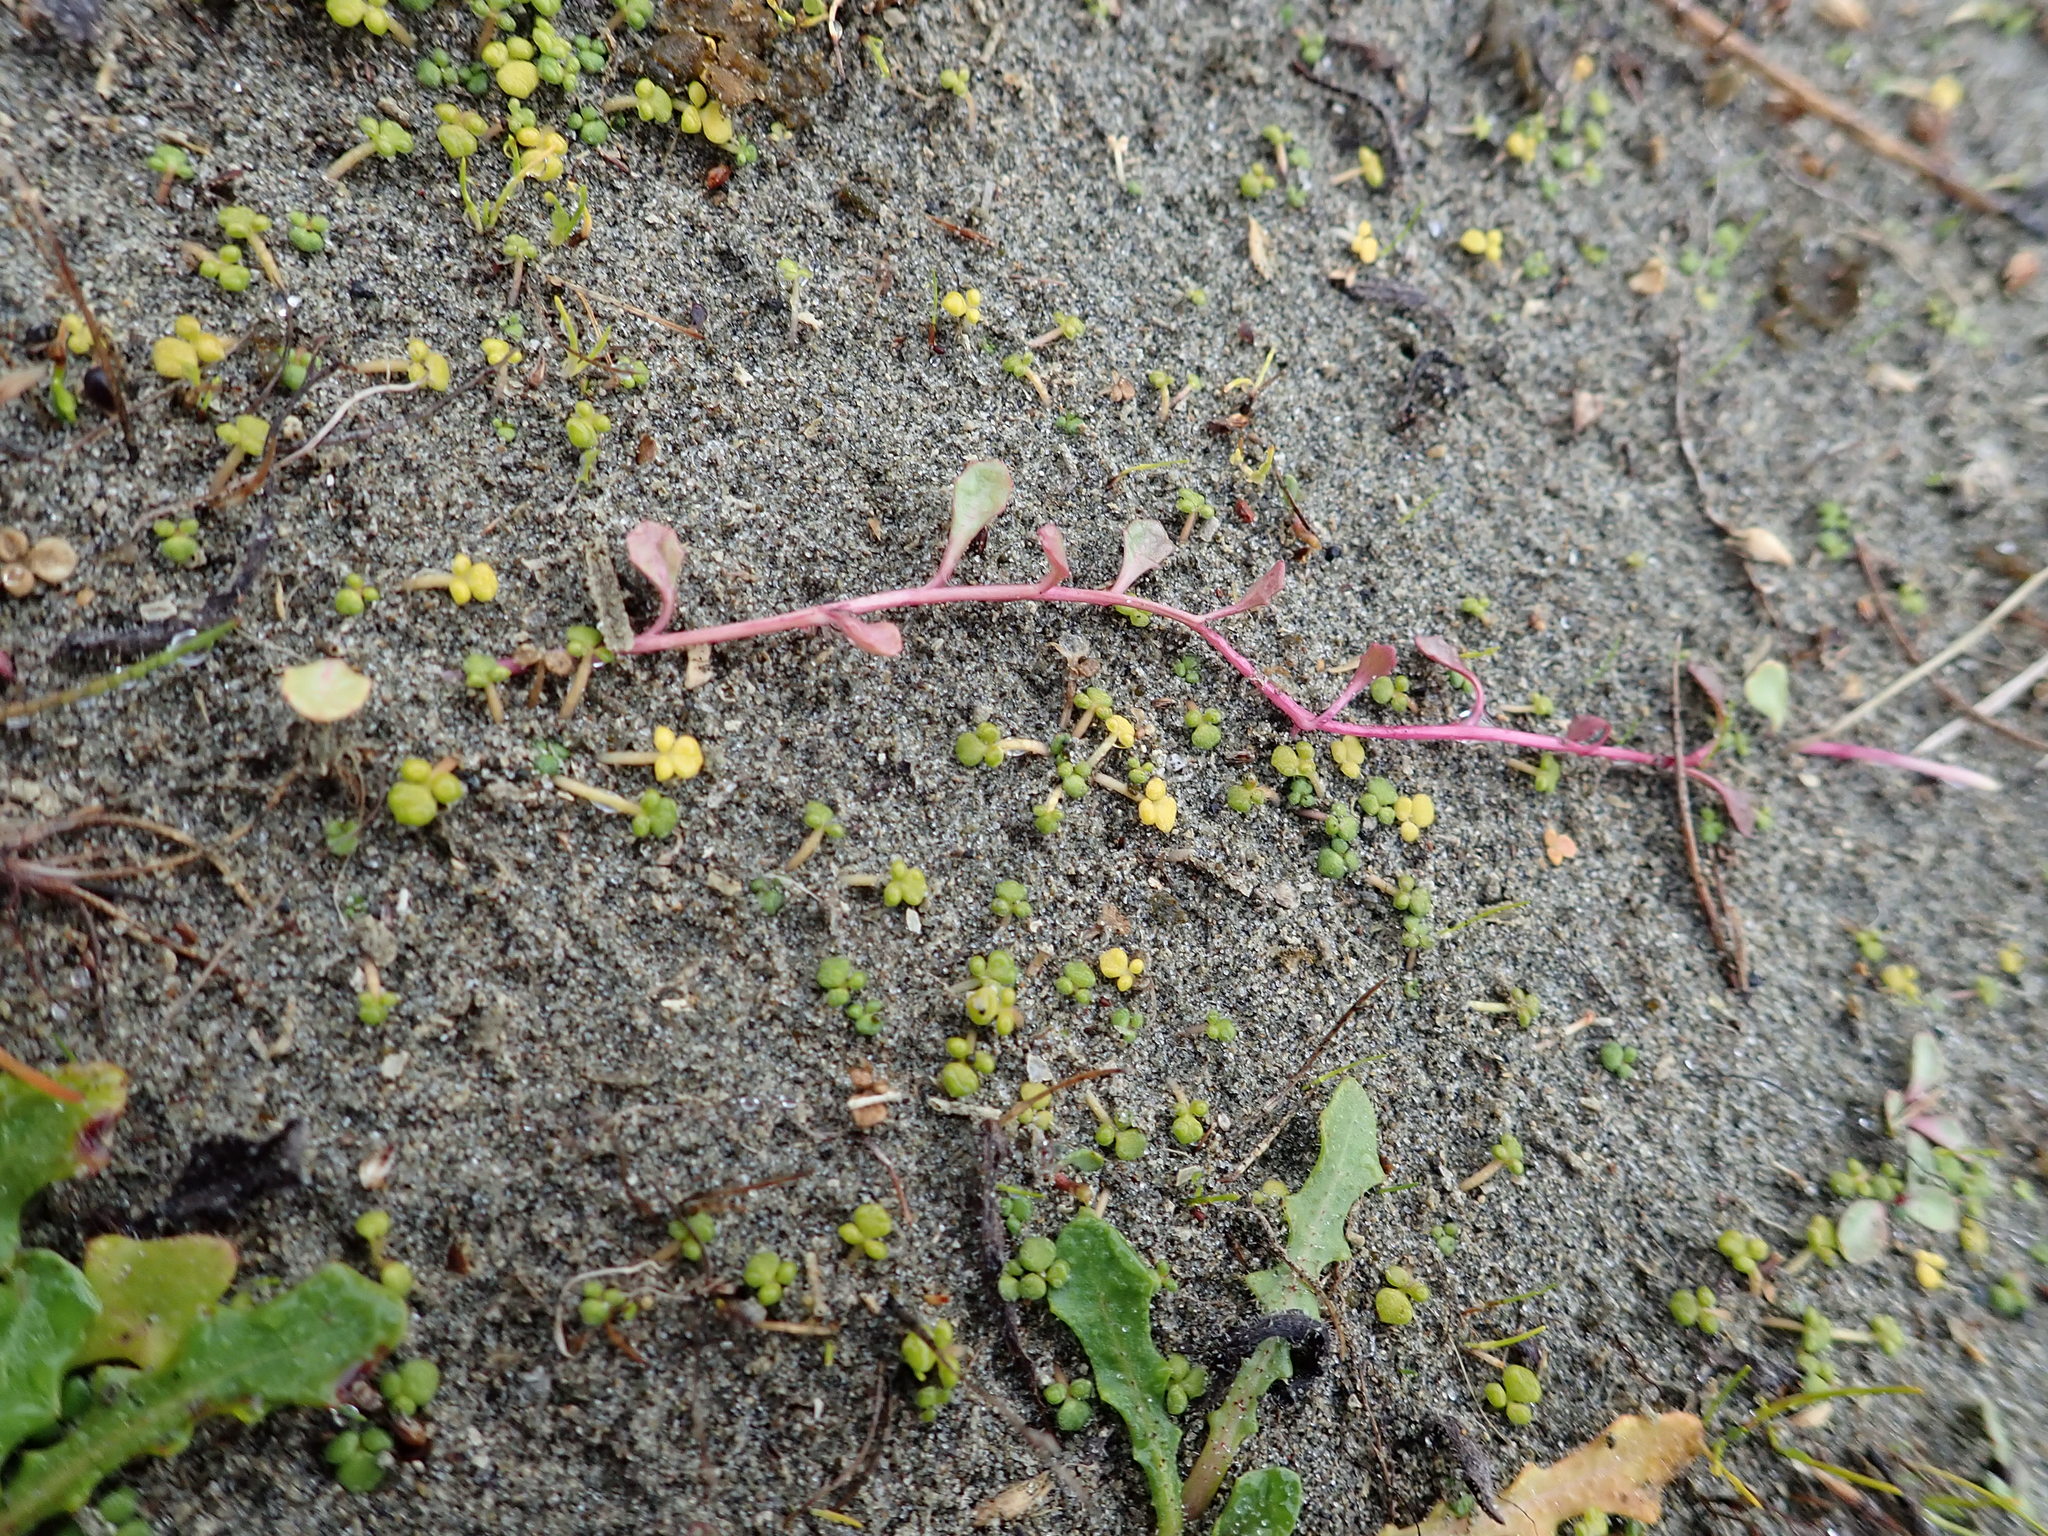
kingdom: Plantae
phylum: Tracheophyta
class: Magnoliopsida
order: Asterales
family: Campanulaceae
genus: Lobelia
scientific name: Lobelia anceps
